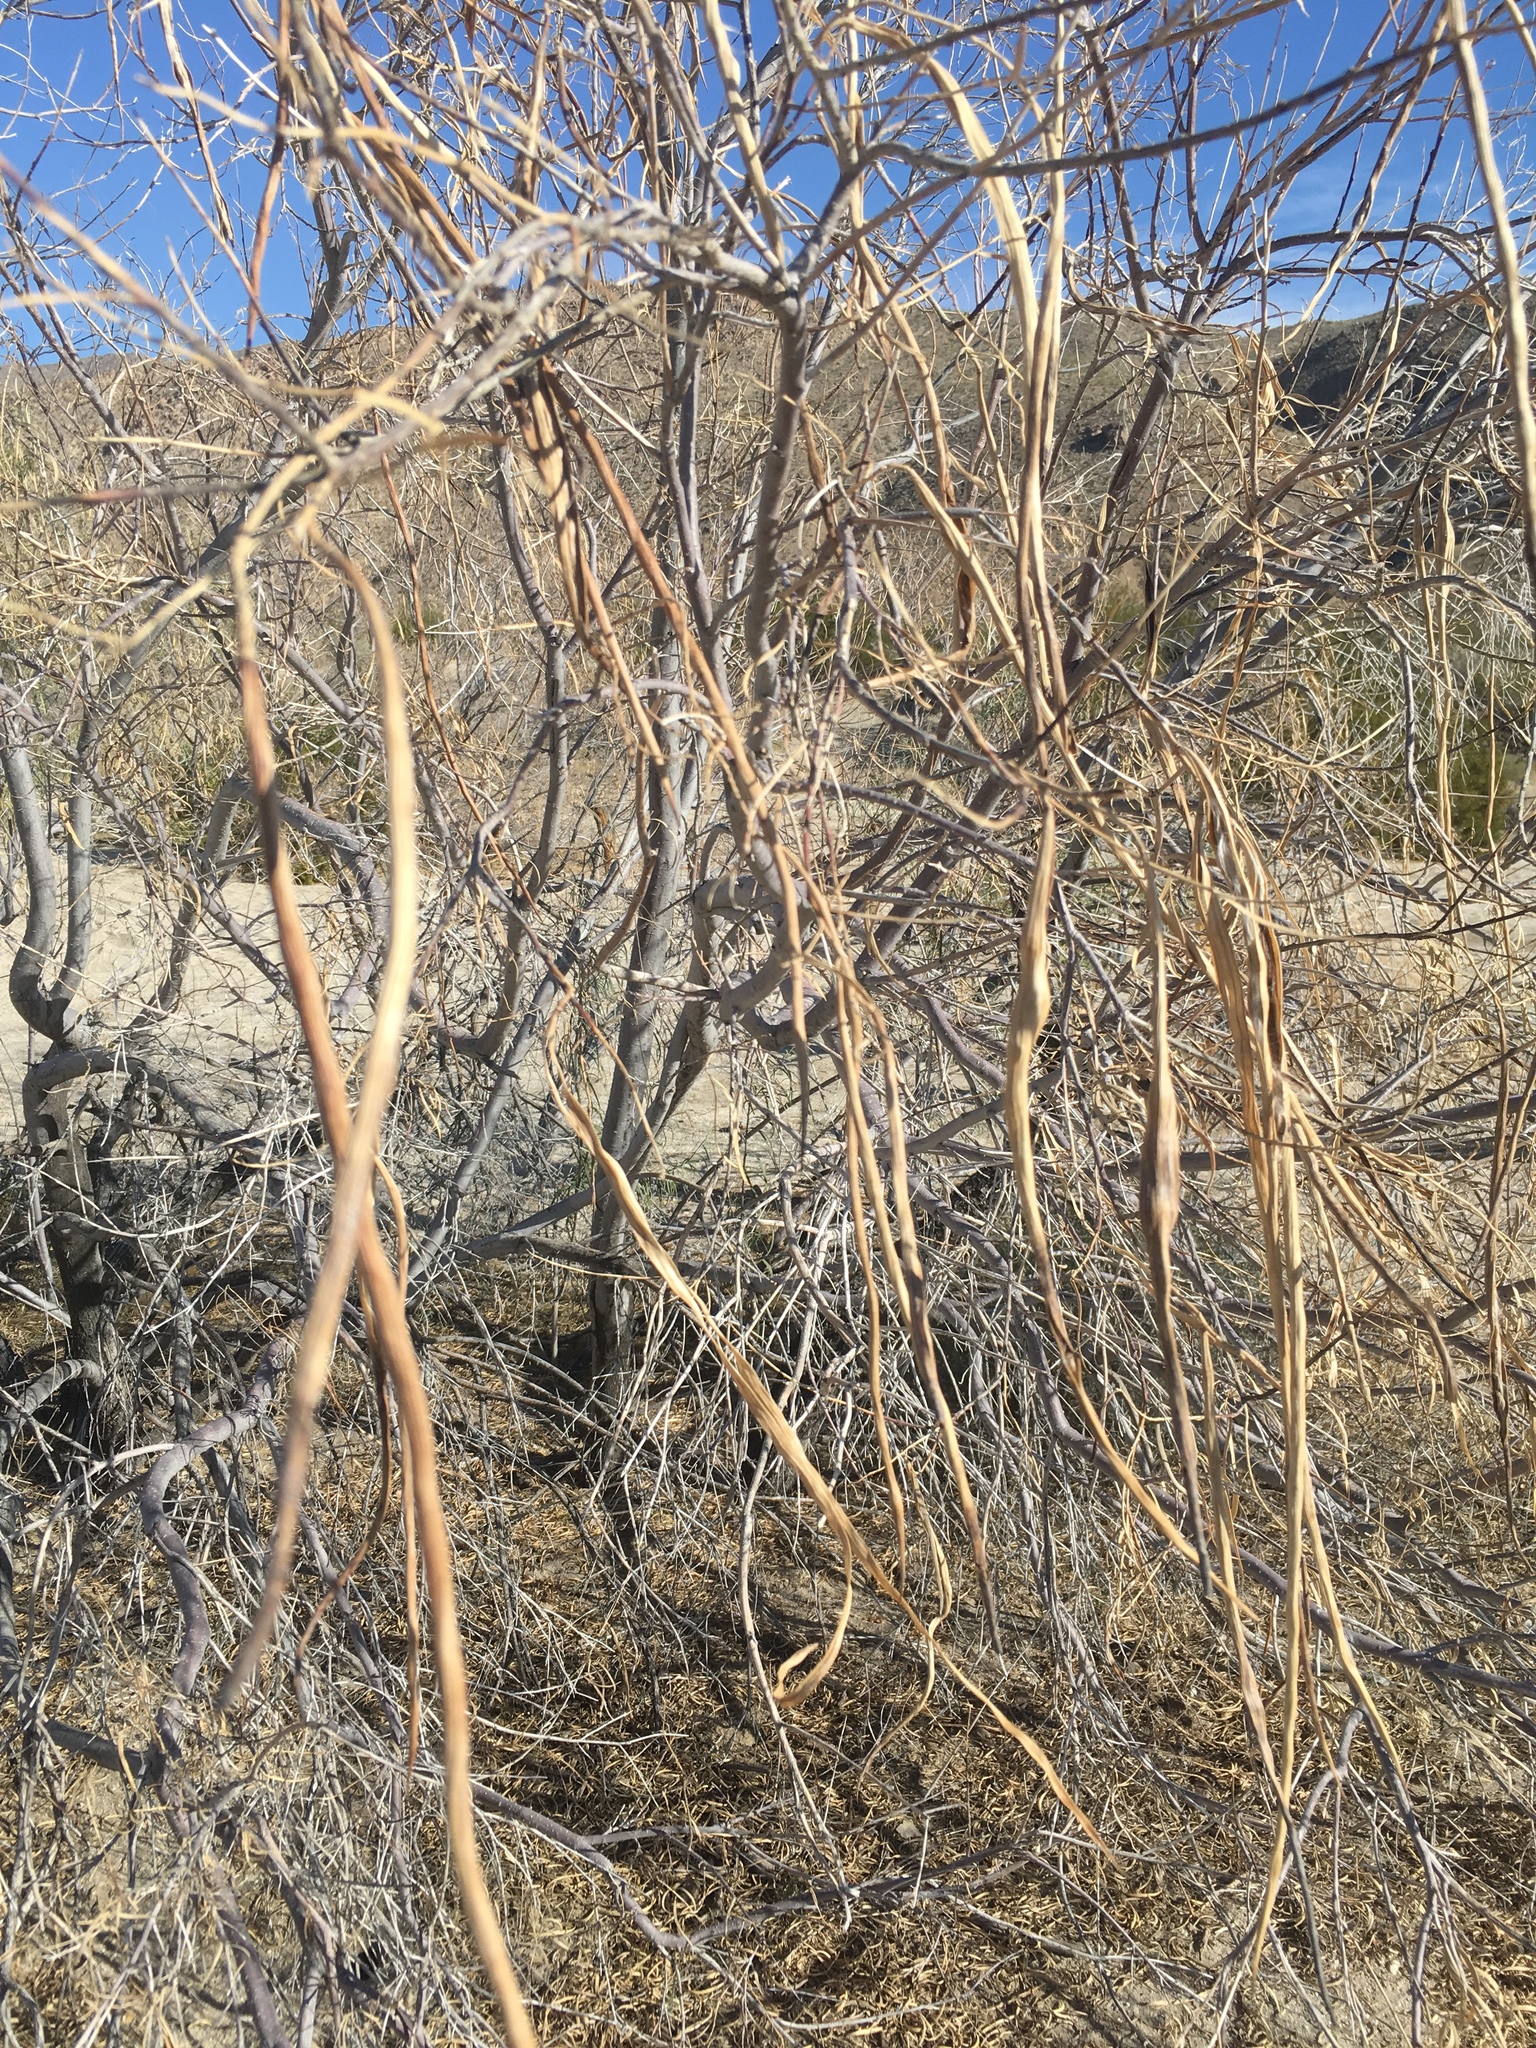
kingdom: Plantae
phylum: Tracheophyta
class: Magnoliopsida
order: Lamiales
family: Bignoniaceae
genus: Chilopsis
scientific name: Chilopsis linearis
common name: Desert-willow
